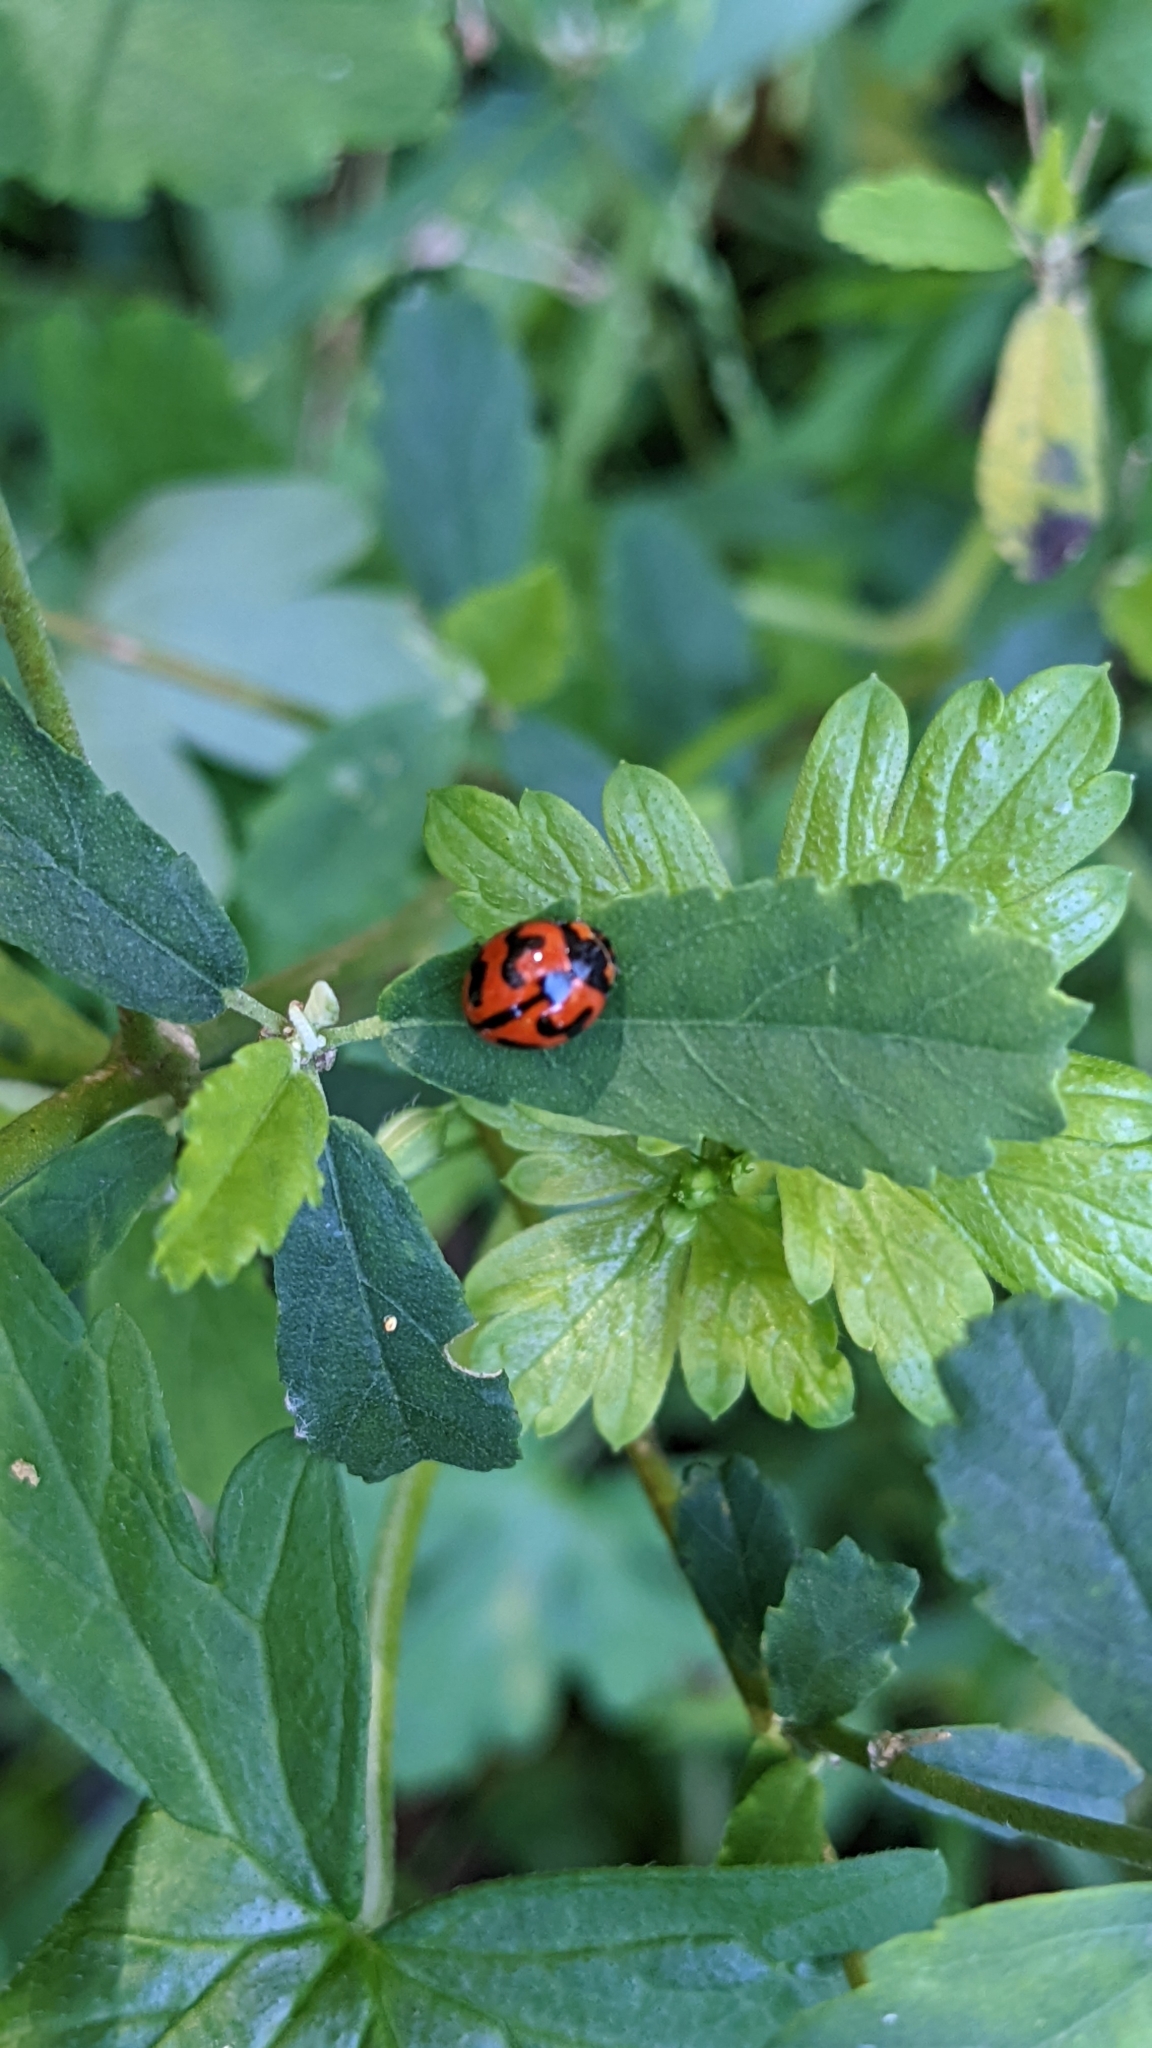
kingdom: Animalia
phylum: Arthropoda
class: Insecta
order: Coleoptera
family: Coccinellidae
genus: Coccinella
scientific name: Coccinella transversalis
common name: Transverse lady beetle
